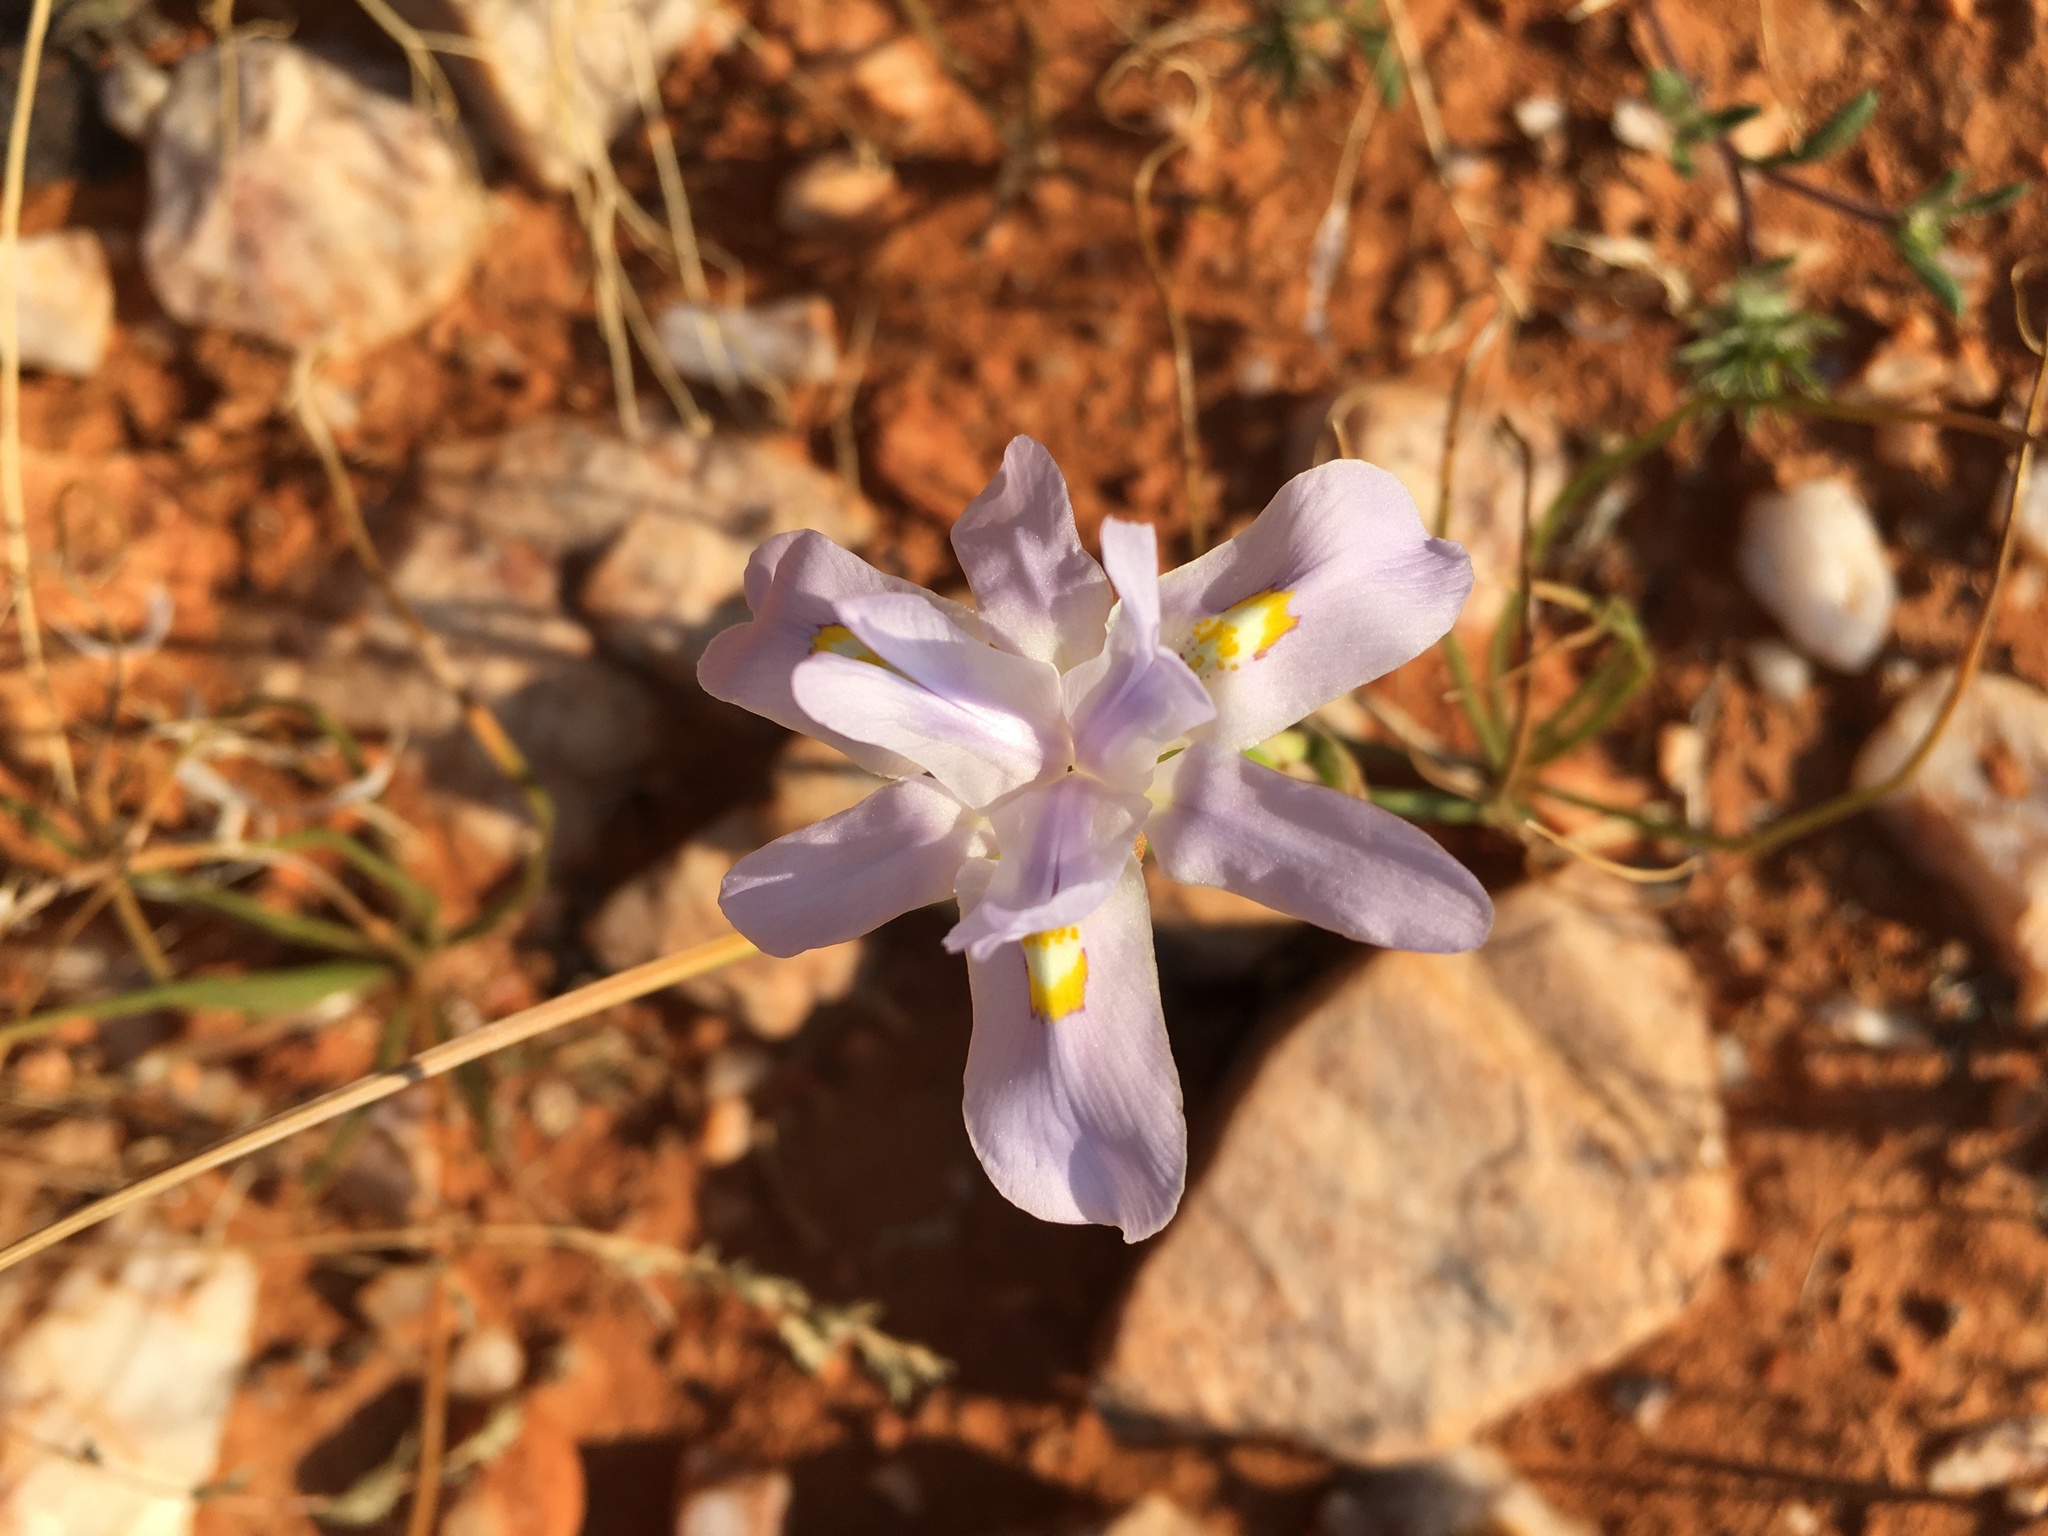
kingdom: Plantae
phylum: Tracheophyta
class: Liliopsida
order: Asparagales
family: Iridaceae
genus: Moraea
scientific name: Moraea serpentina
